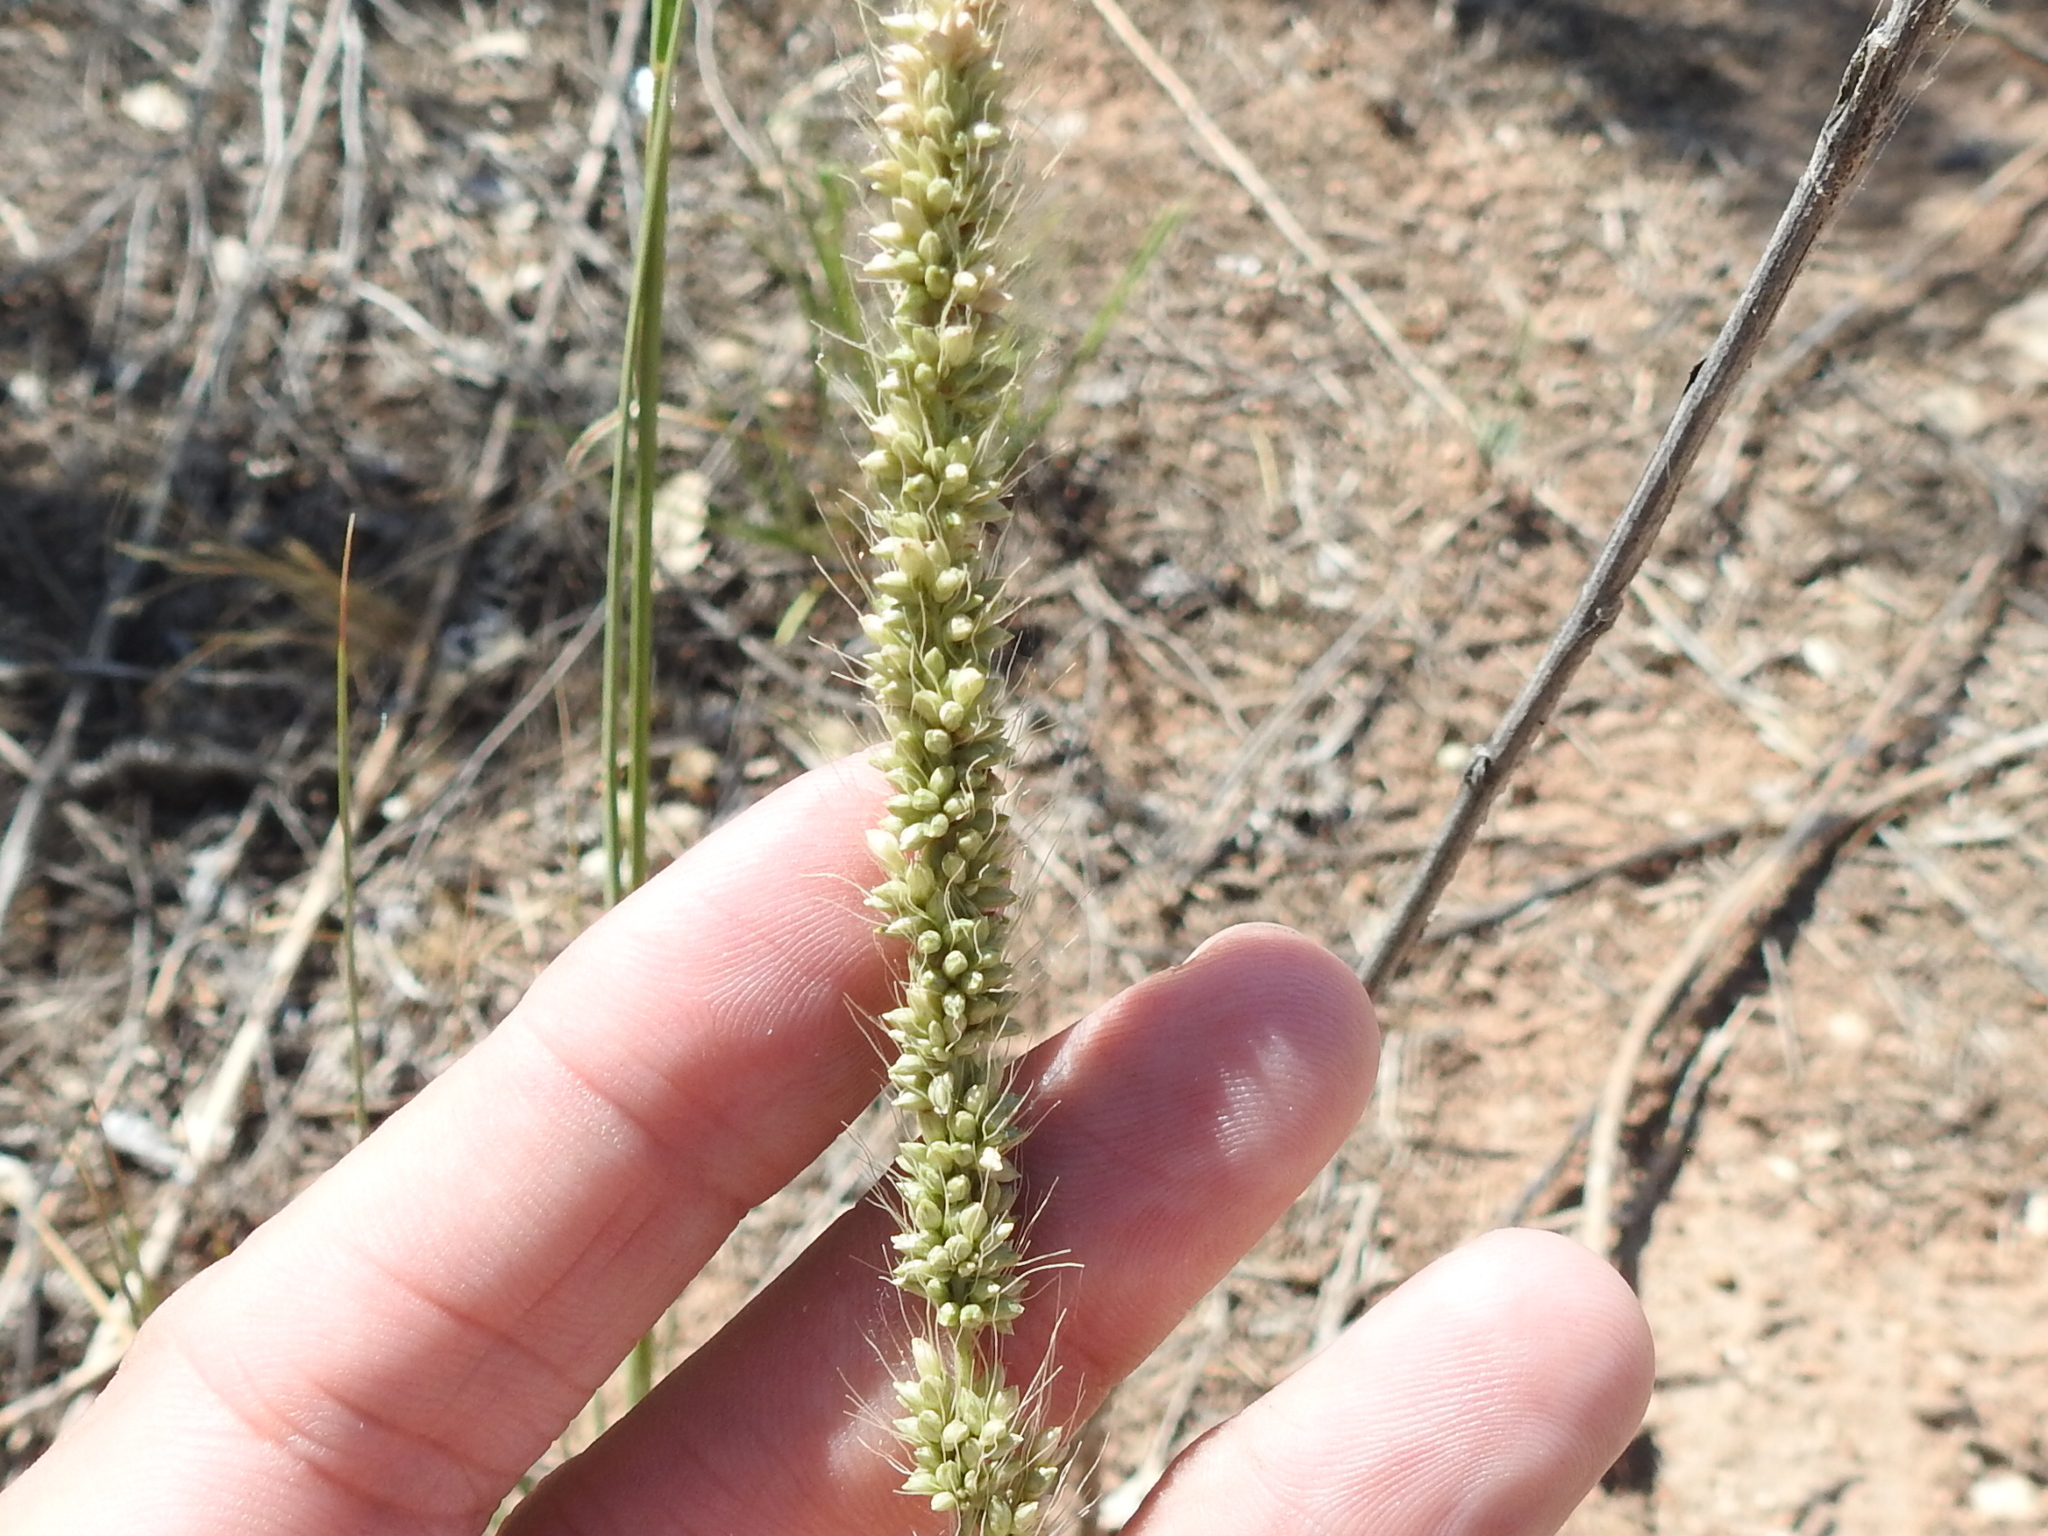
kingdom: Plantae
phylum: Tracheophyta
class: Liliopsida
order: Poales
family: Poaceae
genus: Setaria
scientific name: Setaria leucopila
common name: Plains bristle grass
